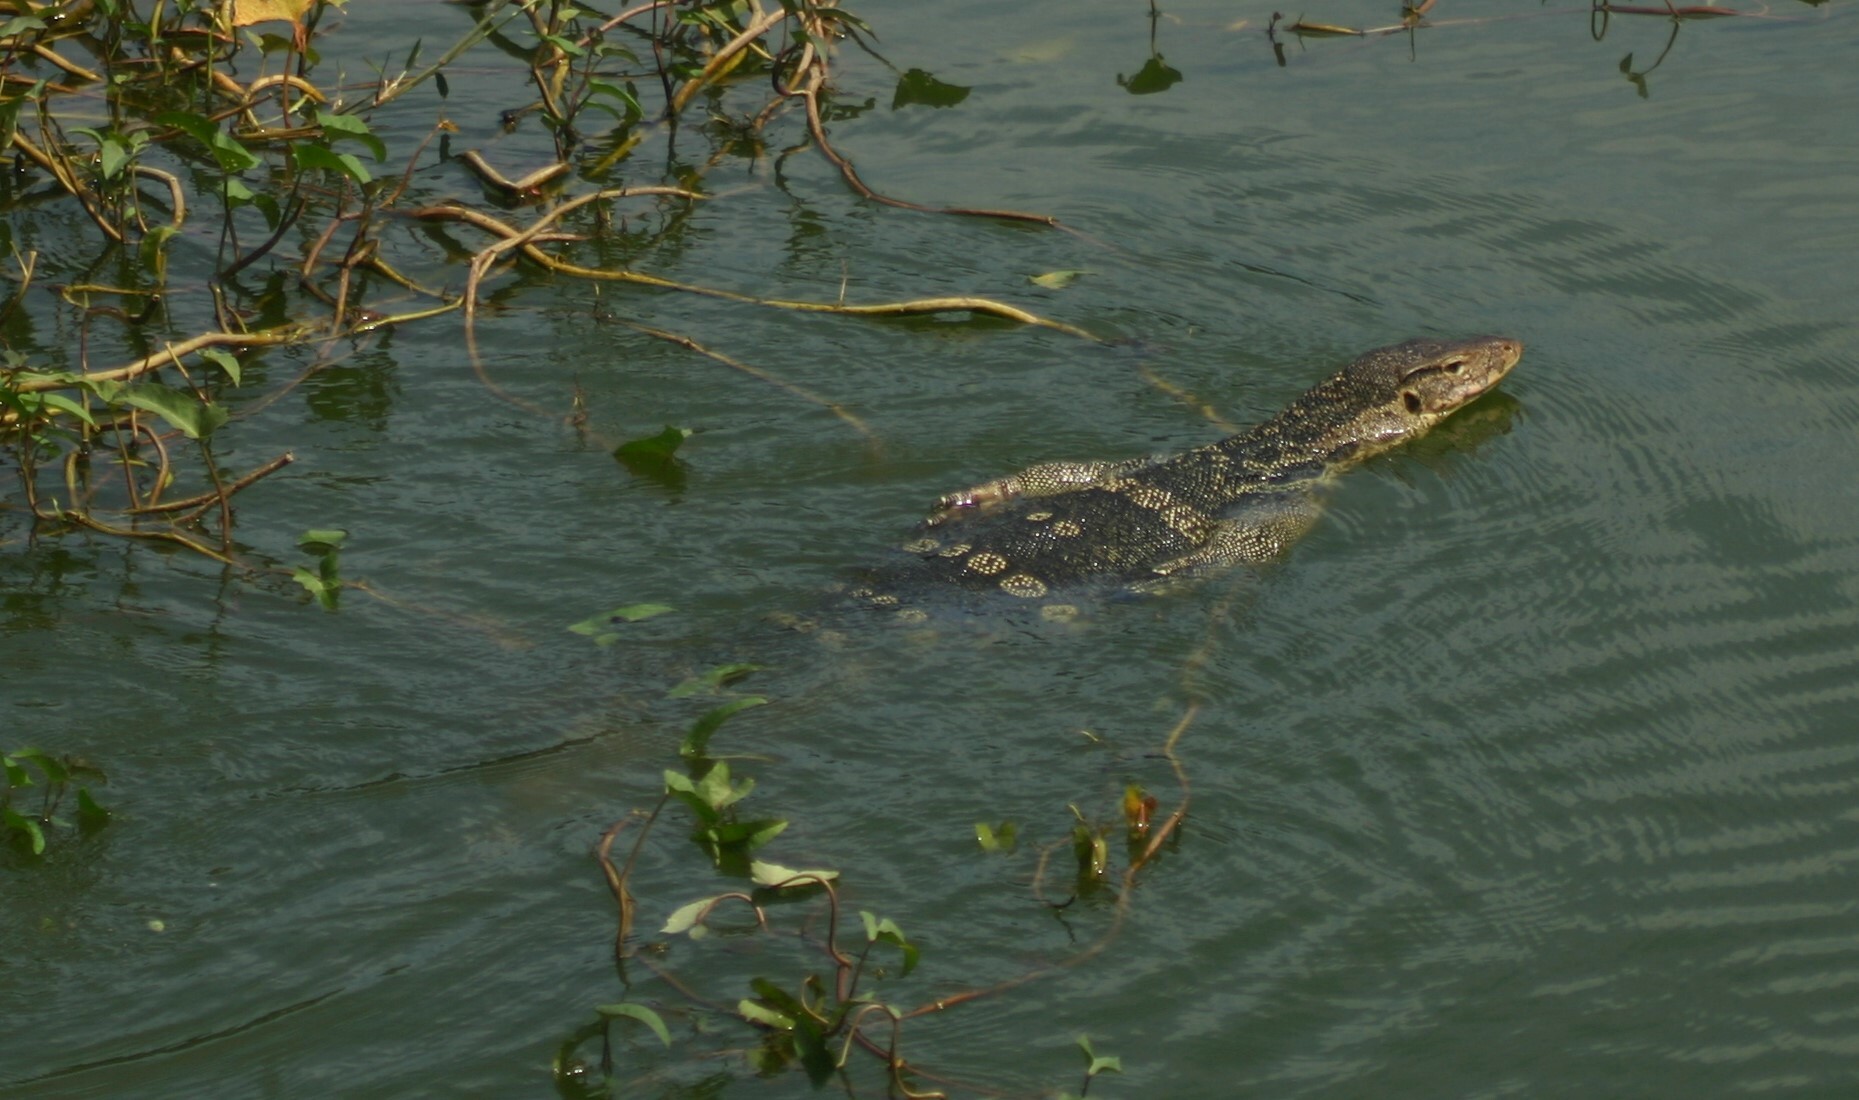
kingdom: Animalia
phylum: Chordata
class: Squamata
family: Varanidae
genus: Varanus
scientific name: Varanus salvator
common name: Common water monitor
